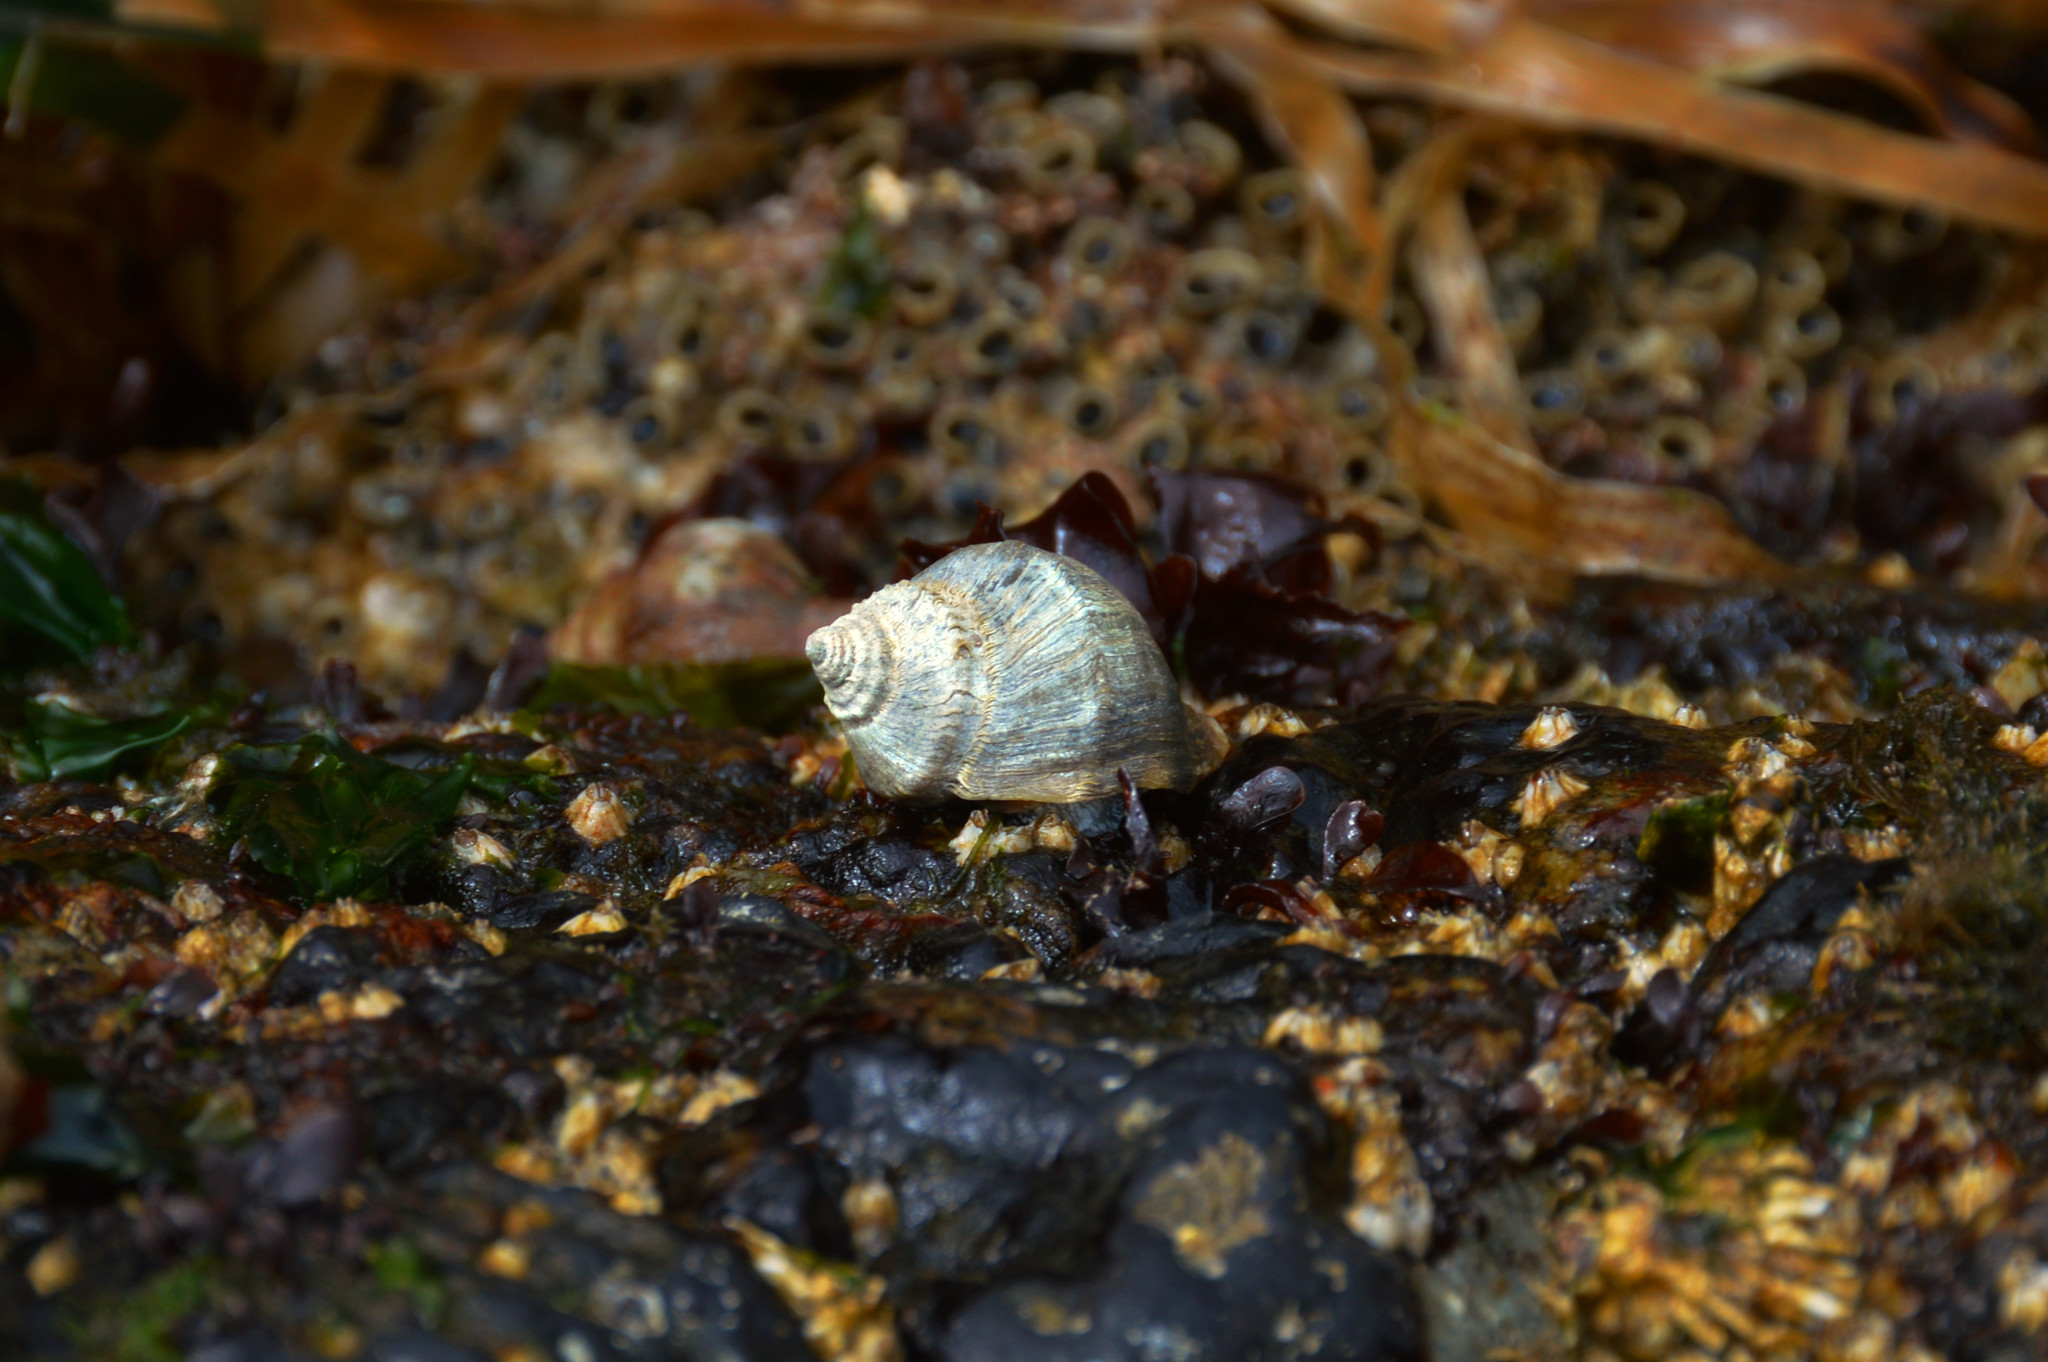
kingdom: Animalia
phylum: Mollusca
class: Gastropoda
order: Neogastropoda
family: Muricidae
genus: Nucella
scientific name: Nucella lamellosa
